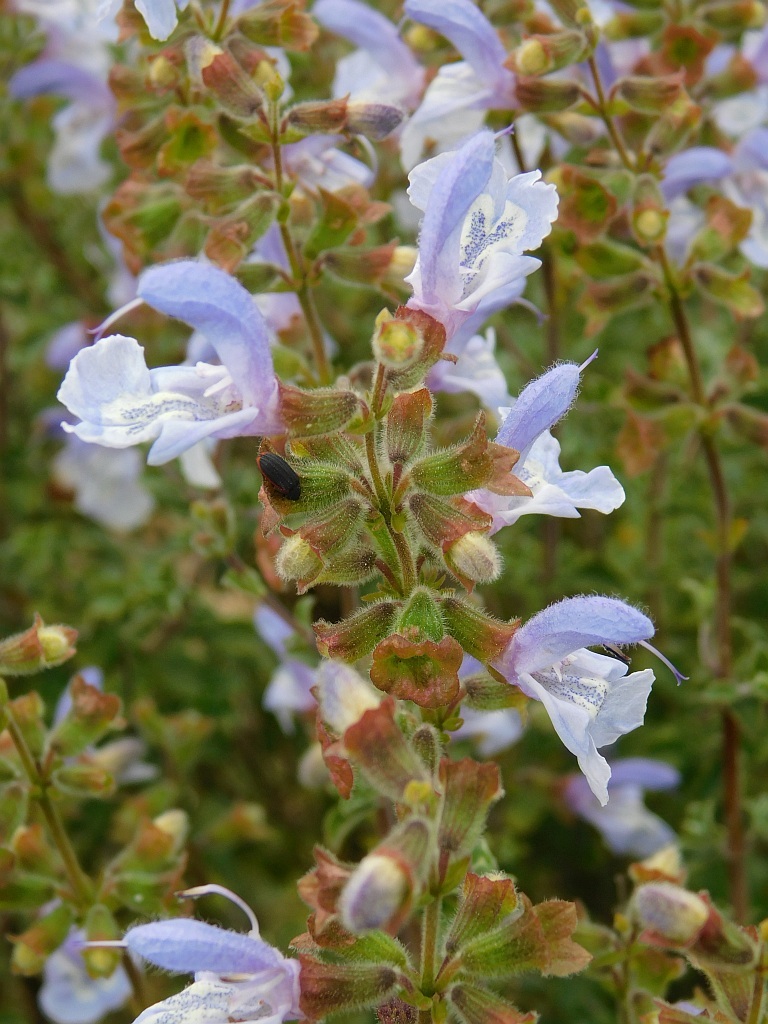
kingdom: Plantae
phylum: Tracheophyta
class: Magnoliopsida
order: Lamiales
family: Lamiaceae
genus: Salvia
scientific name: Salvia africana
